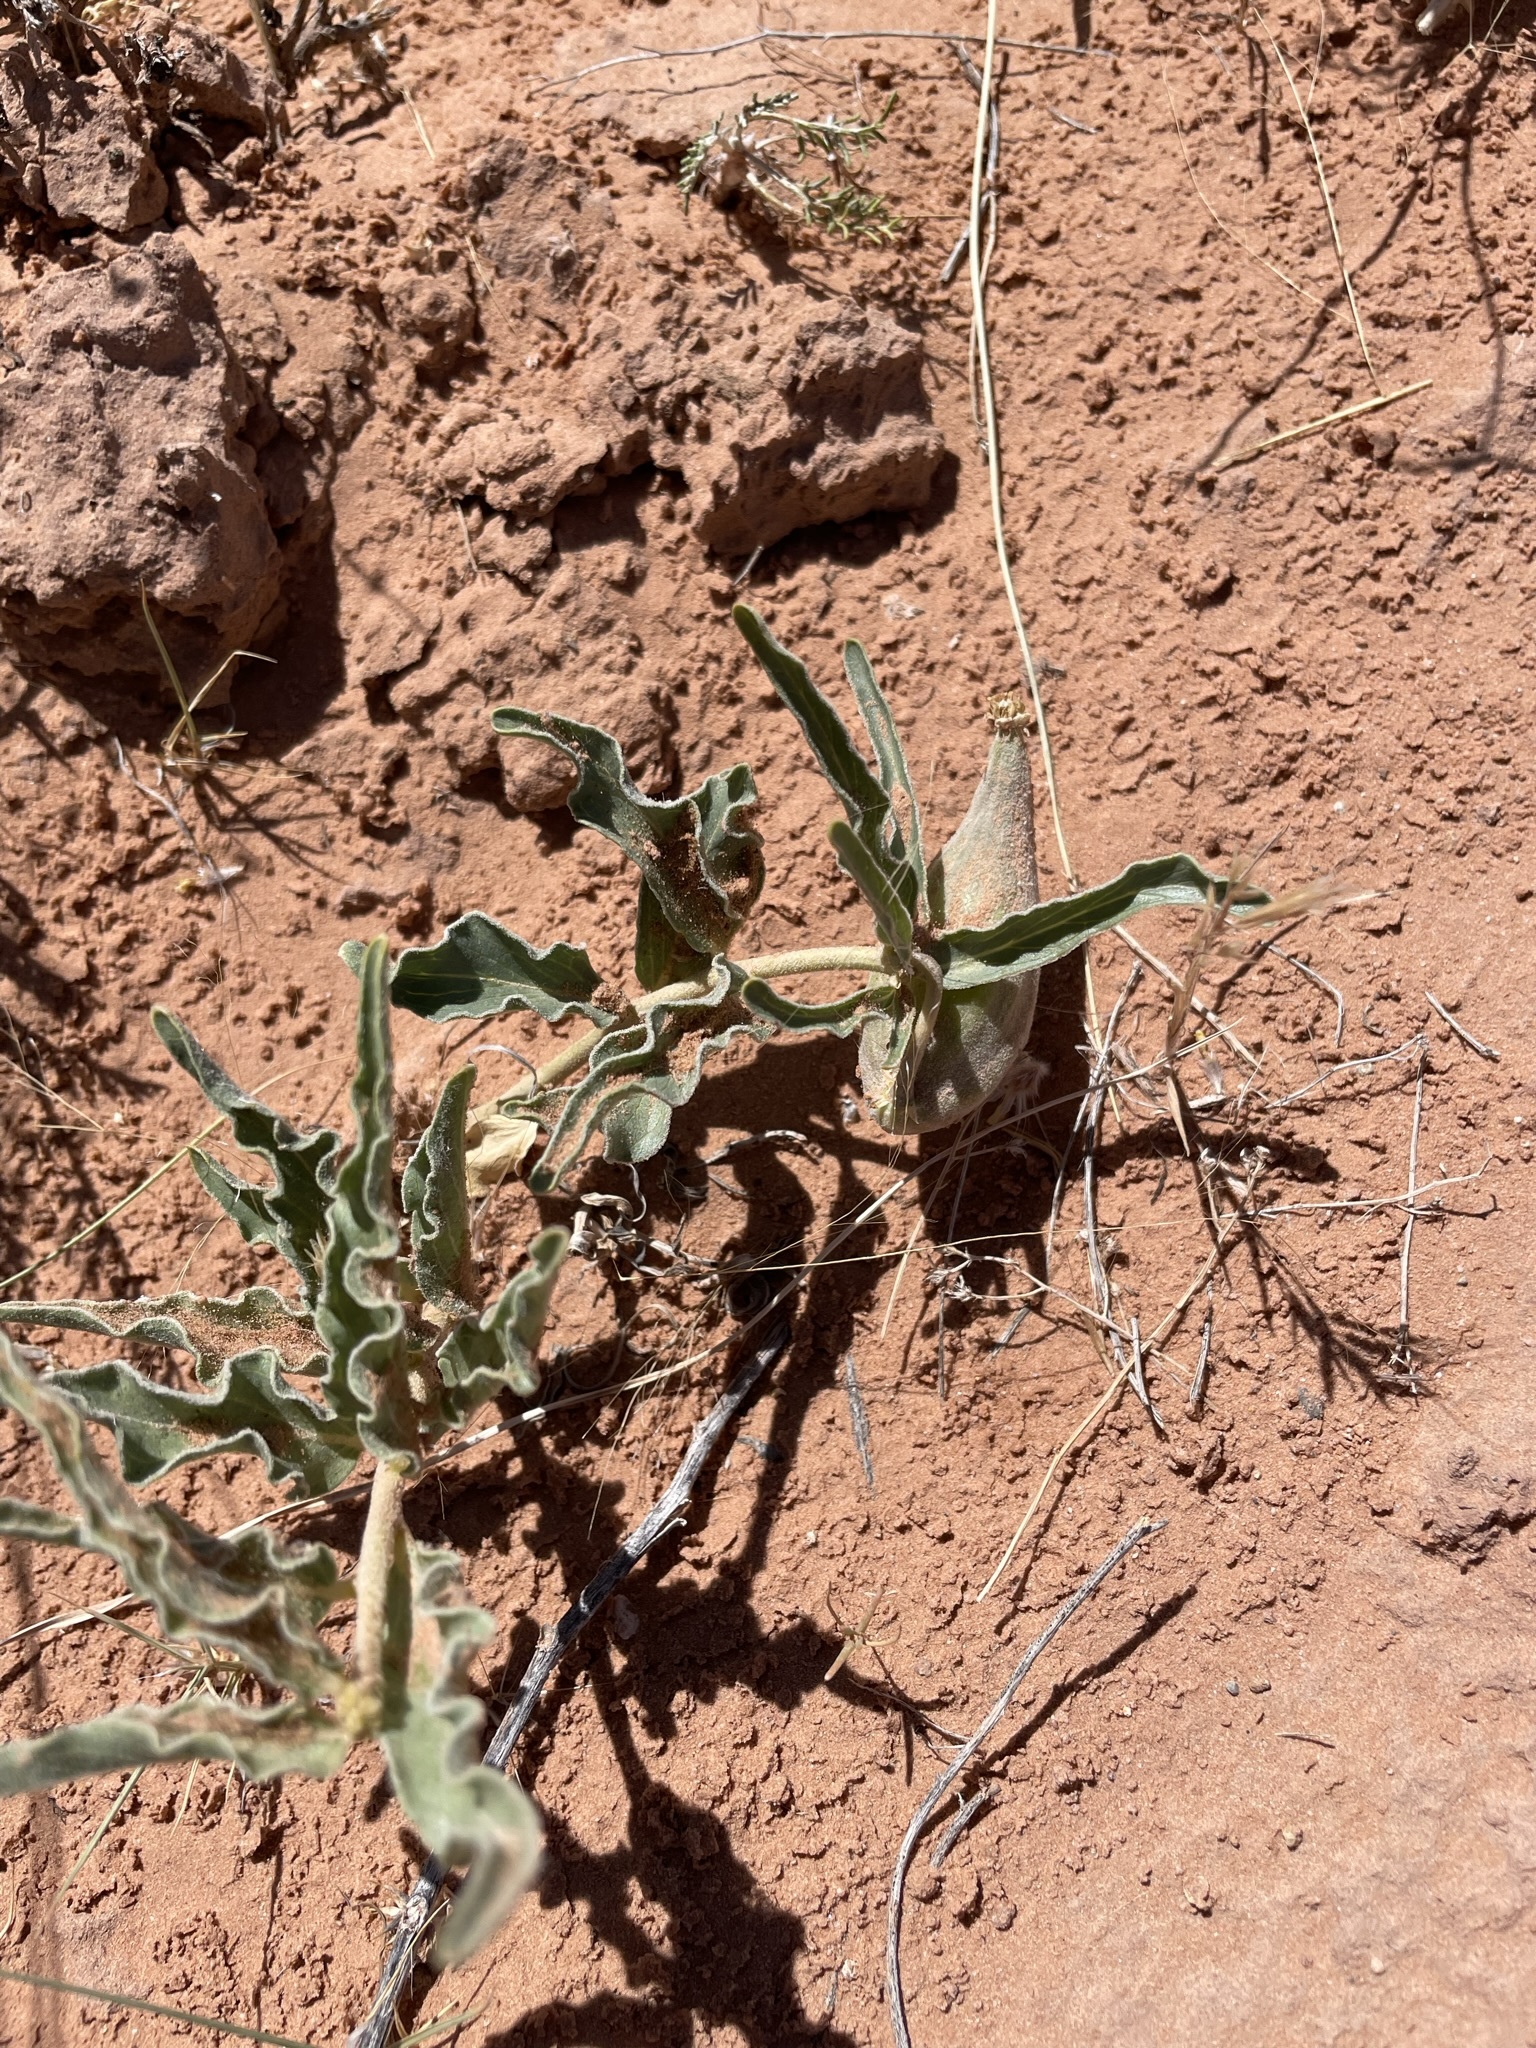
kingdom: Plantae
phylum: Tracheophyta
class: Magnoliopsida
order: Gentianales
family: Apocynaceae
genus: Asclepias
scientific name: Asclepias involucrata
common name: Dwarf milkweed
